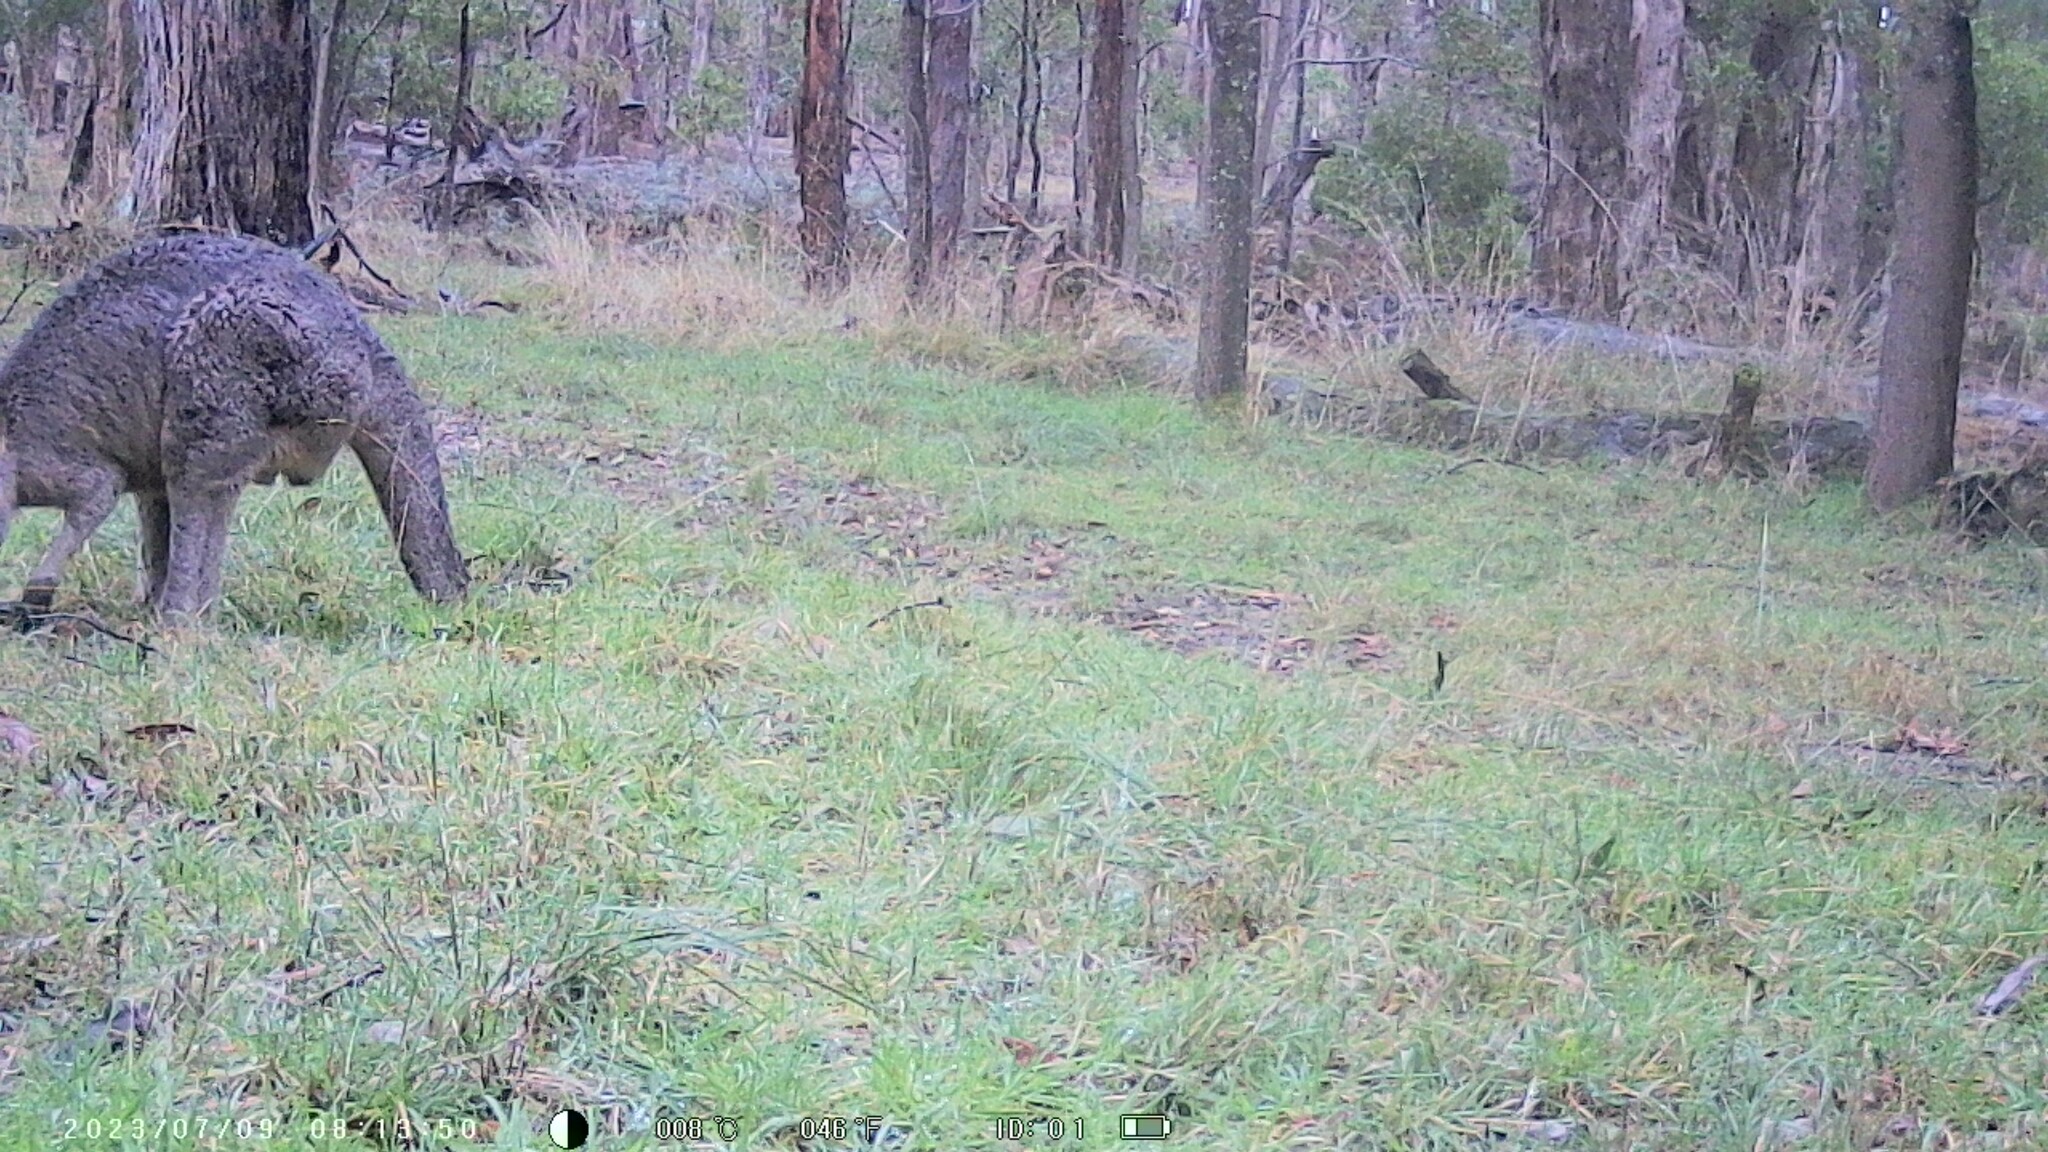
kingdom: Animalia
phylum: Chordata
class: Mammalia
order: Diprotodontia
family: Macropodidae
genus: Macropus
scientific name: Macropus giganteus
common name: Eastern grey kangaroo
